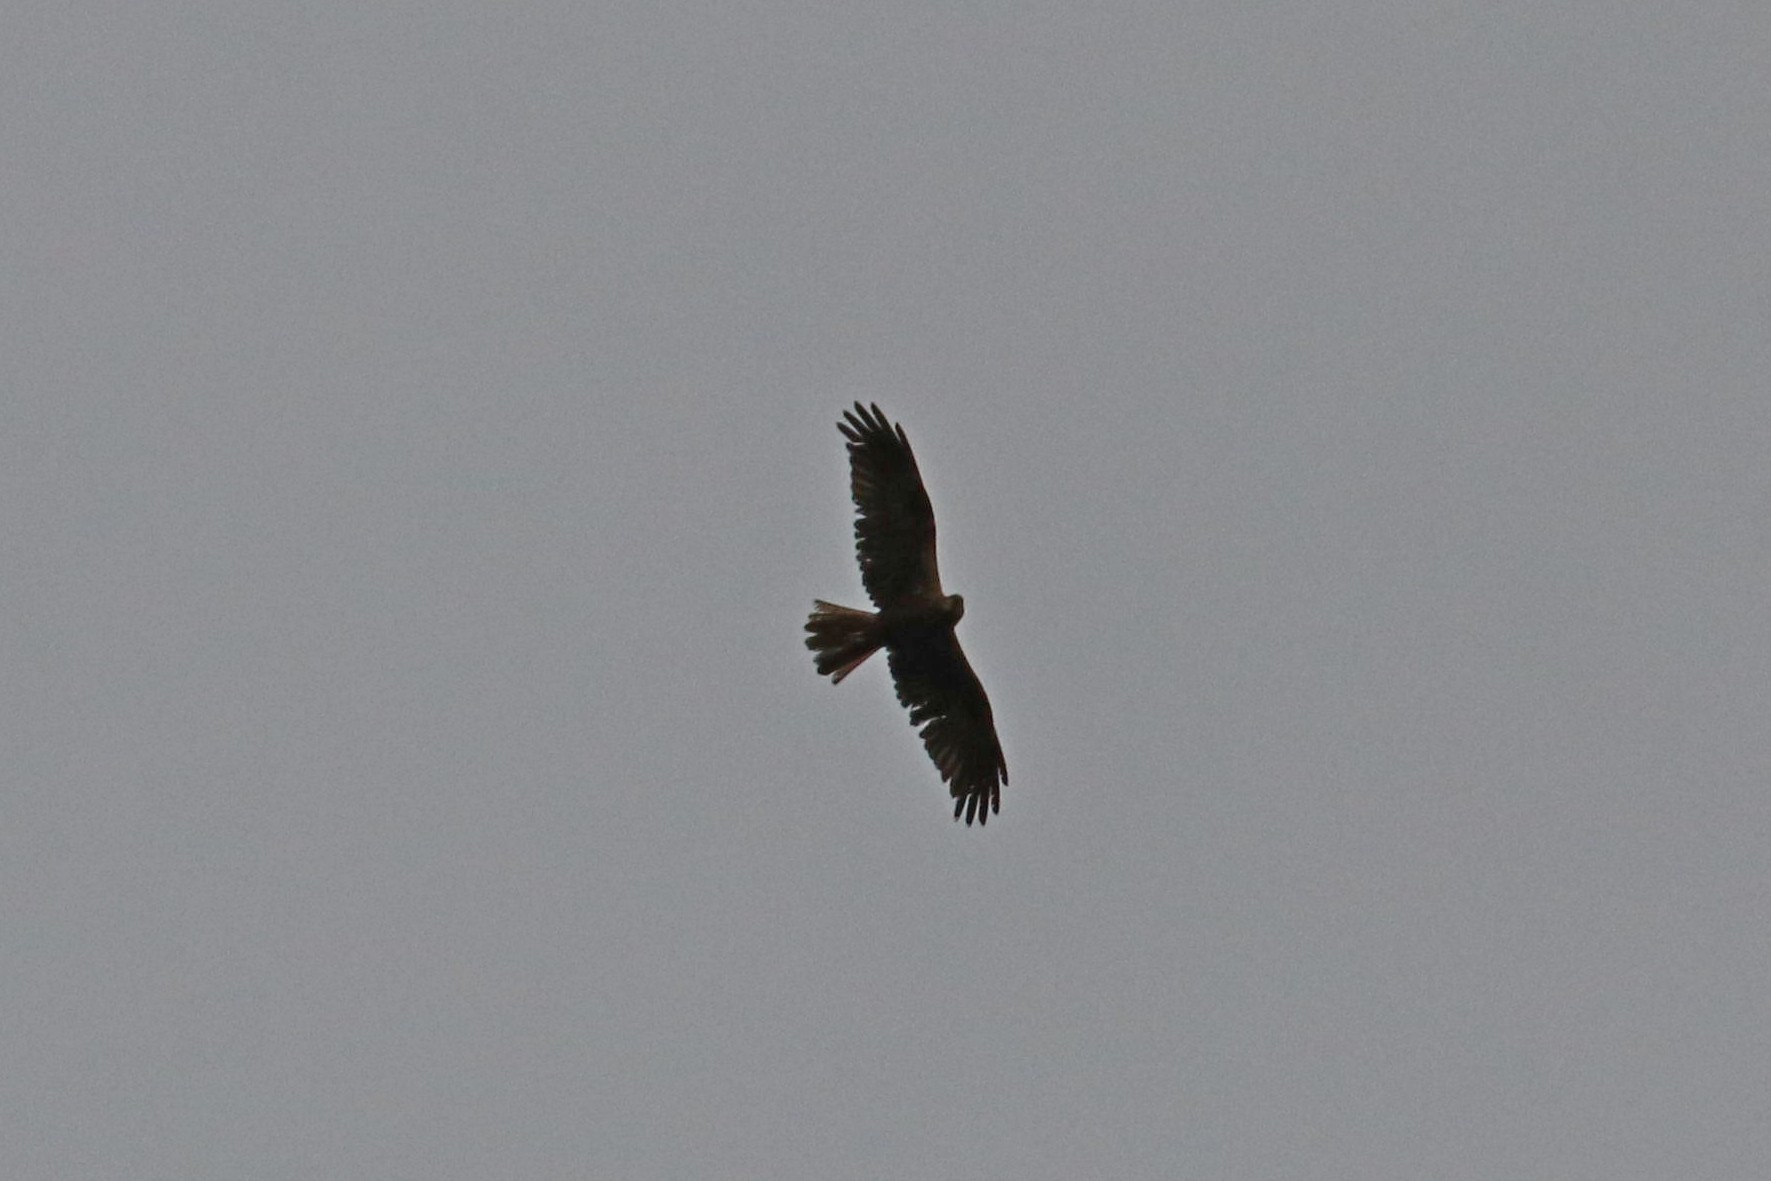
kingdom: Animalia
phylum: Chordata
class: Aves
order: Accipitriformes
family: Accipitridae
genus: Circus
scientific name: Circus aeruginosus
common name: Western marsh harrier
